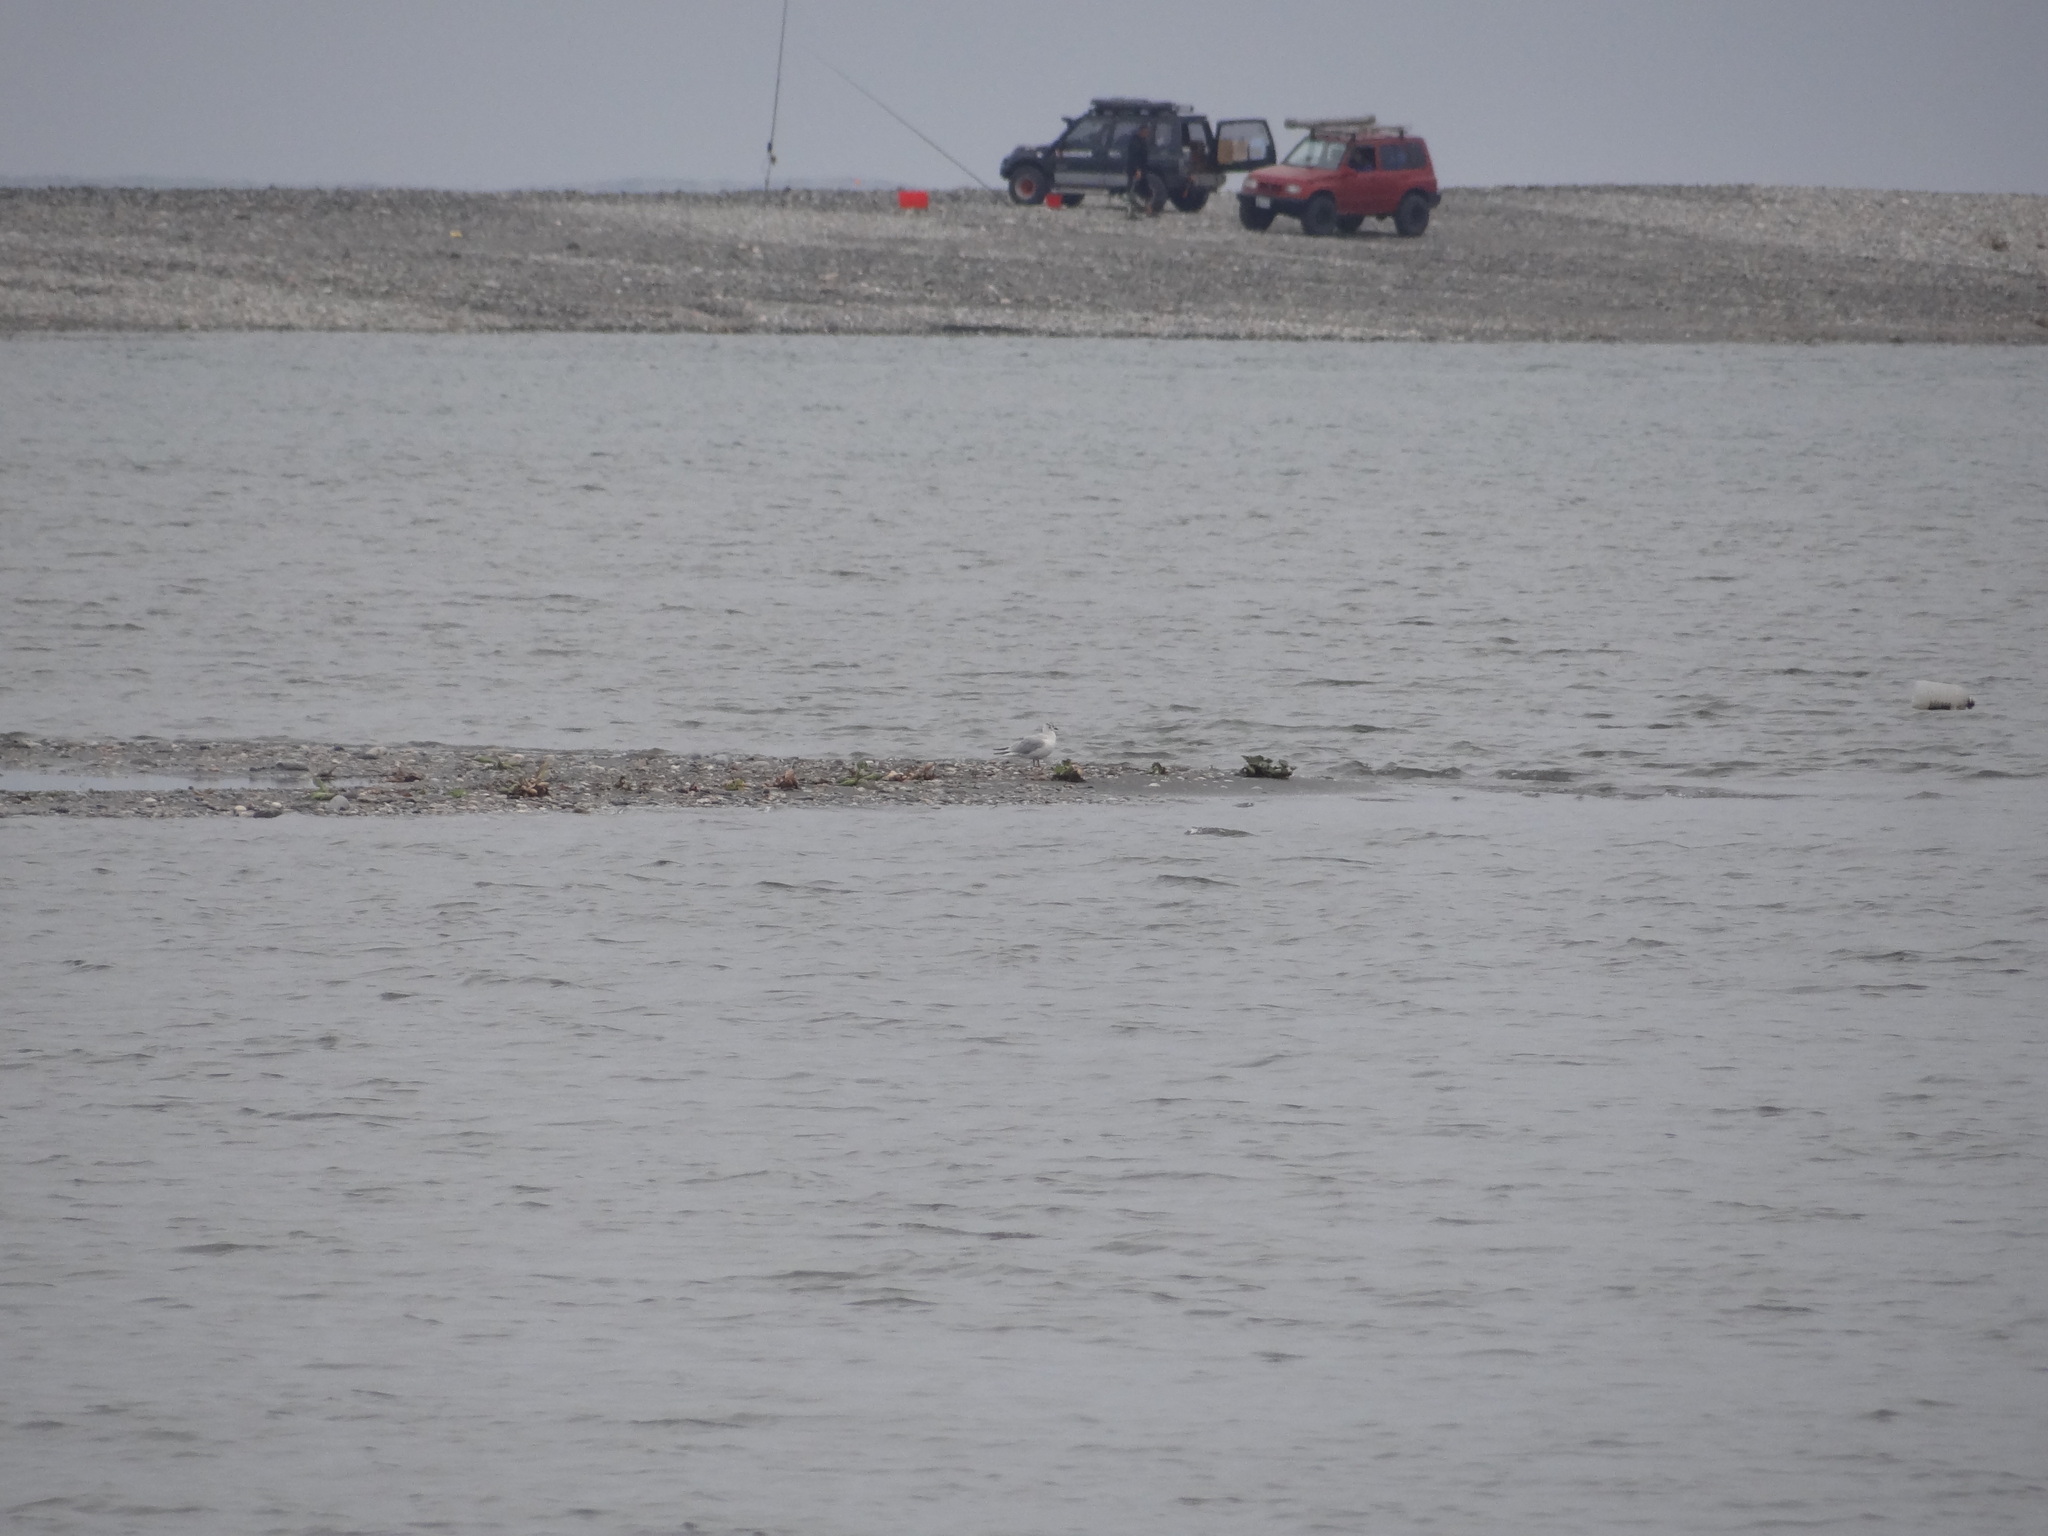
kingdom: Animalia
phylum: Chordata
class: Aves
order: Charadriiformes
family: Laridae
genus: Chroicocephalus
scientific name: Chroicocephalus ridibundus
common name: Black-headed gull
